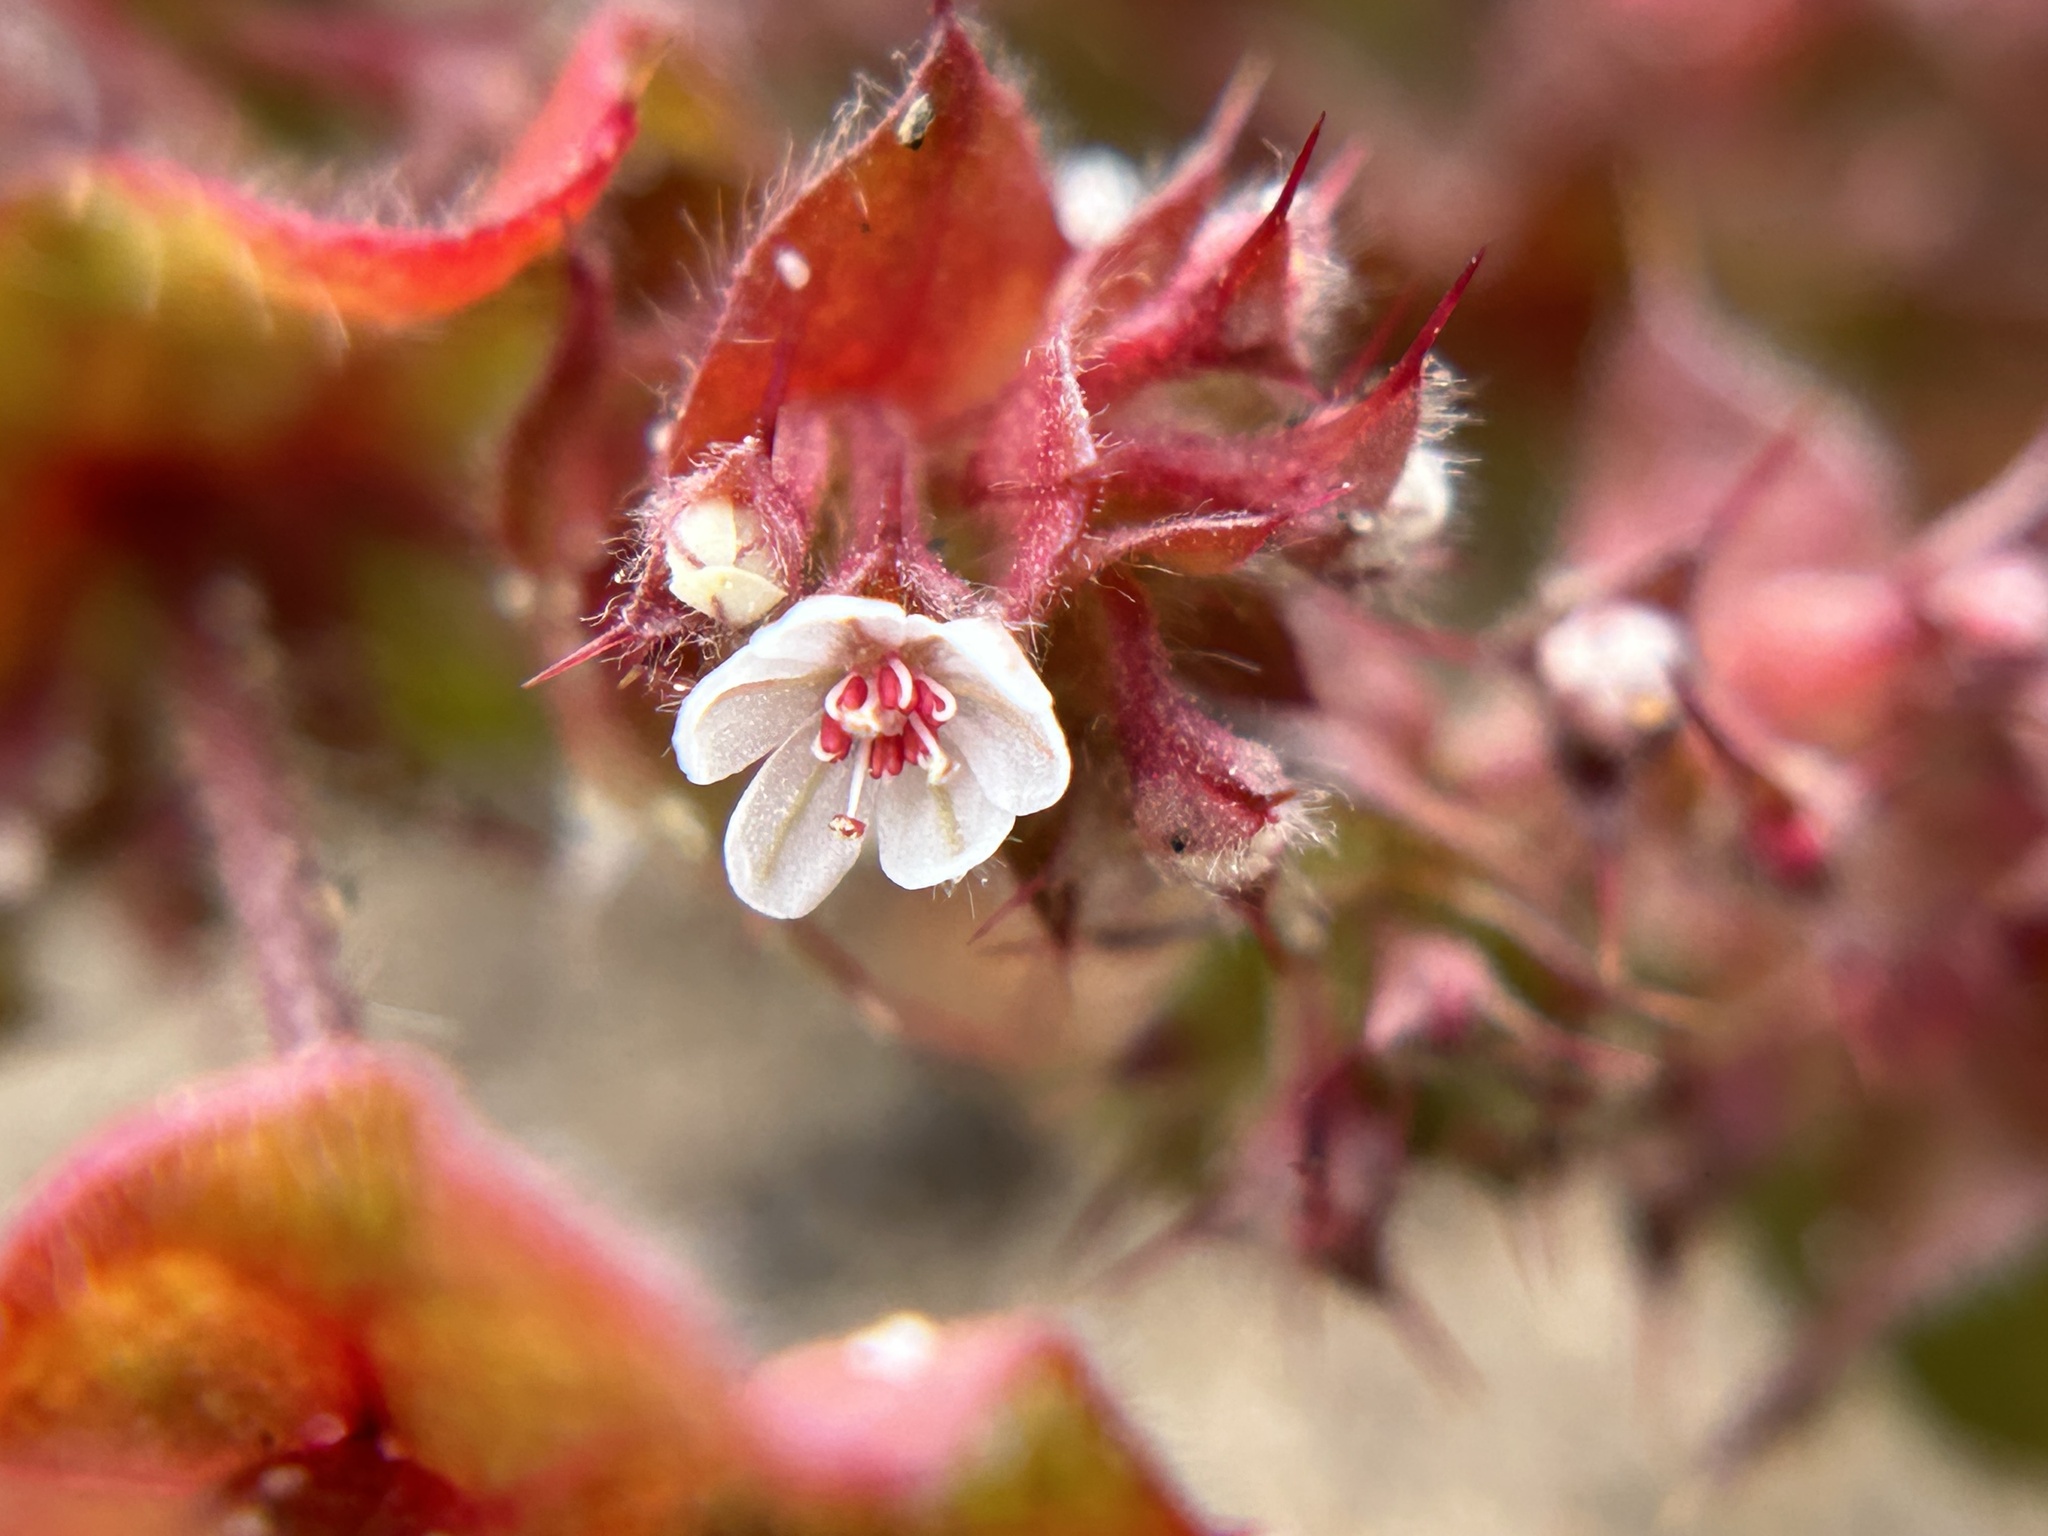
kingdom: Plantae
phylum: Tracheophyta
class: Magnoliopsida
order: Caryophyllales
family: Polygonaceae
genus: Mucronea
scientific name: Mucronea californica
